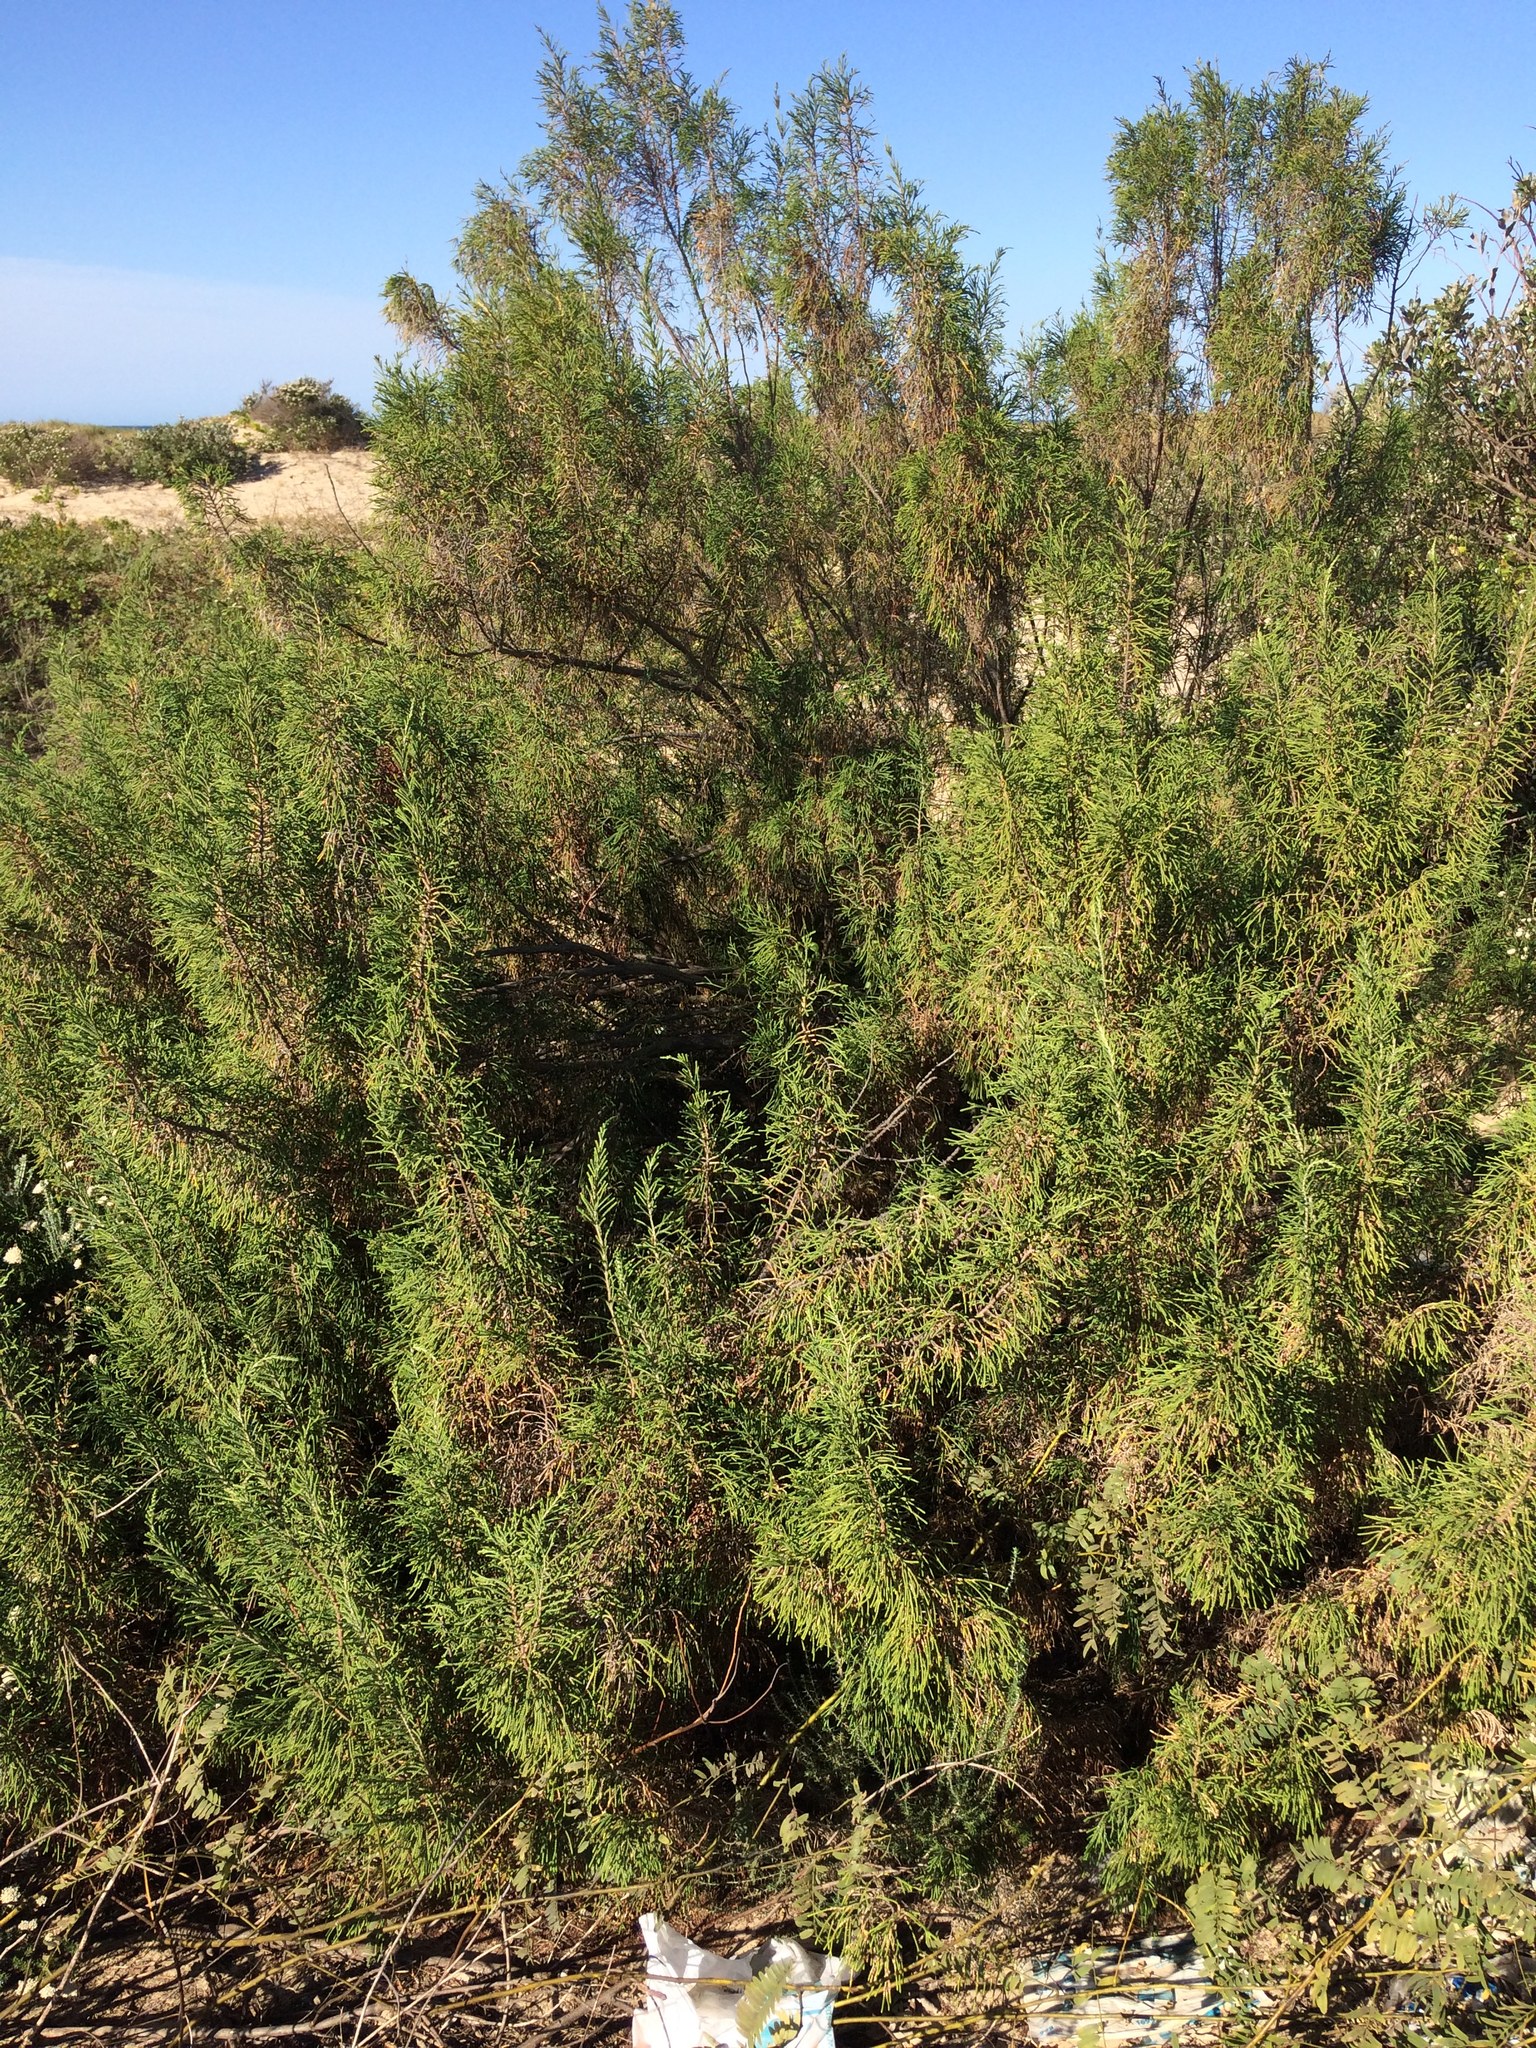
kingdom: Plantae
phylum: Tracheophyta
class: Magnoliopsida
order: Malvales
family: Thymelaeaceae
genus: Passerina
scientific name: Passerina rigida
